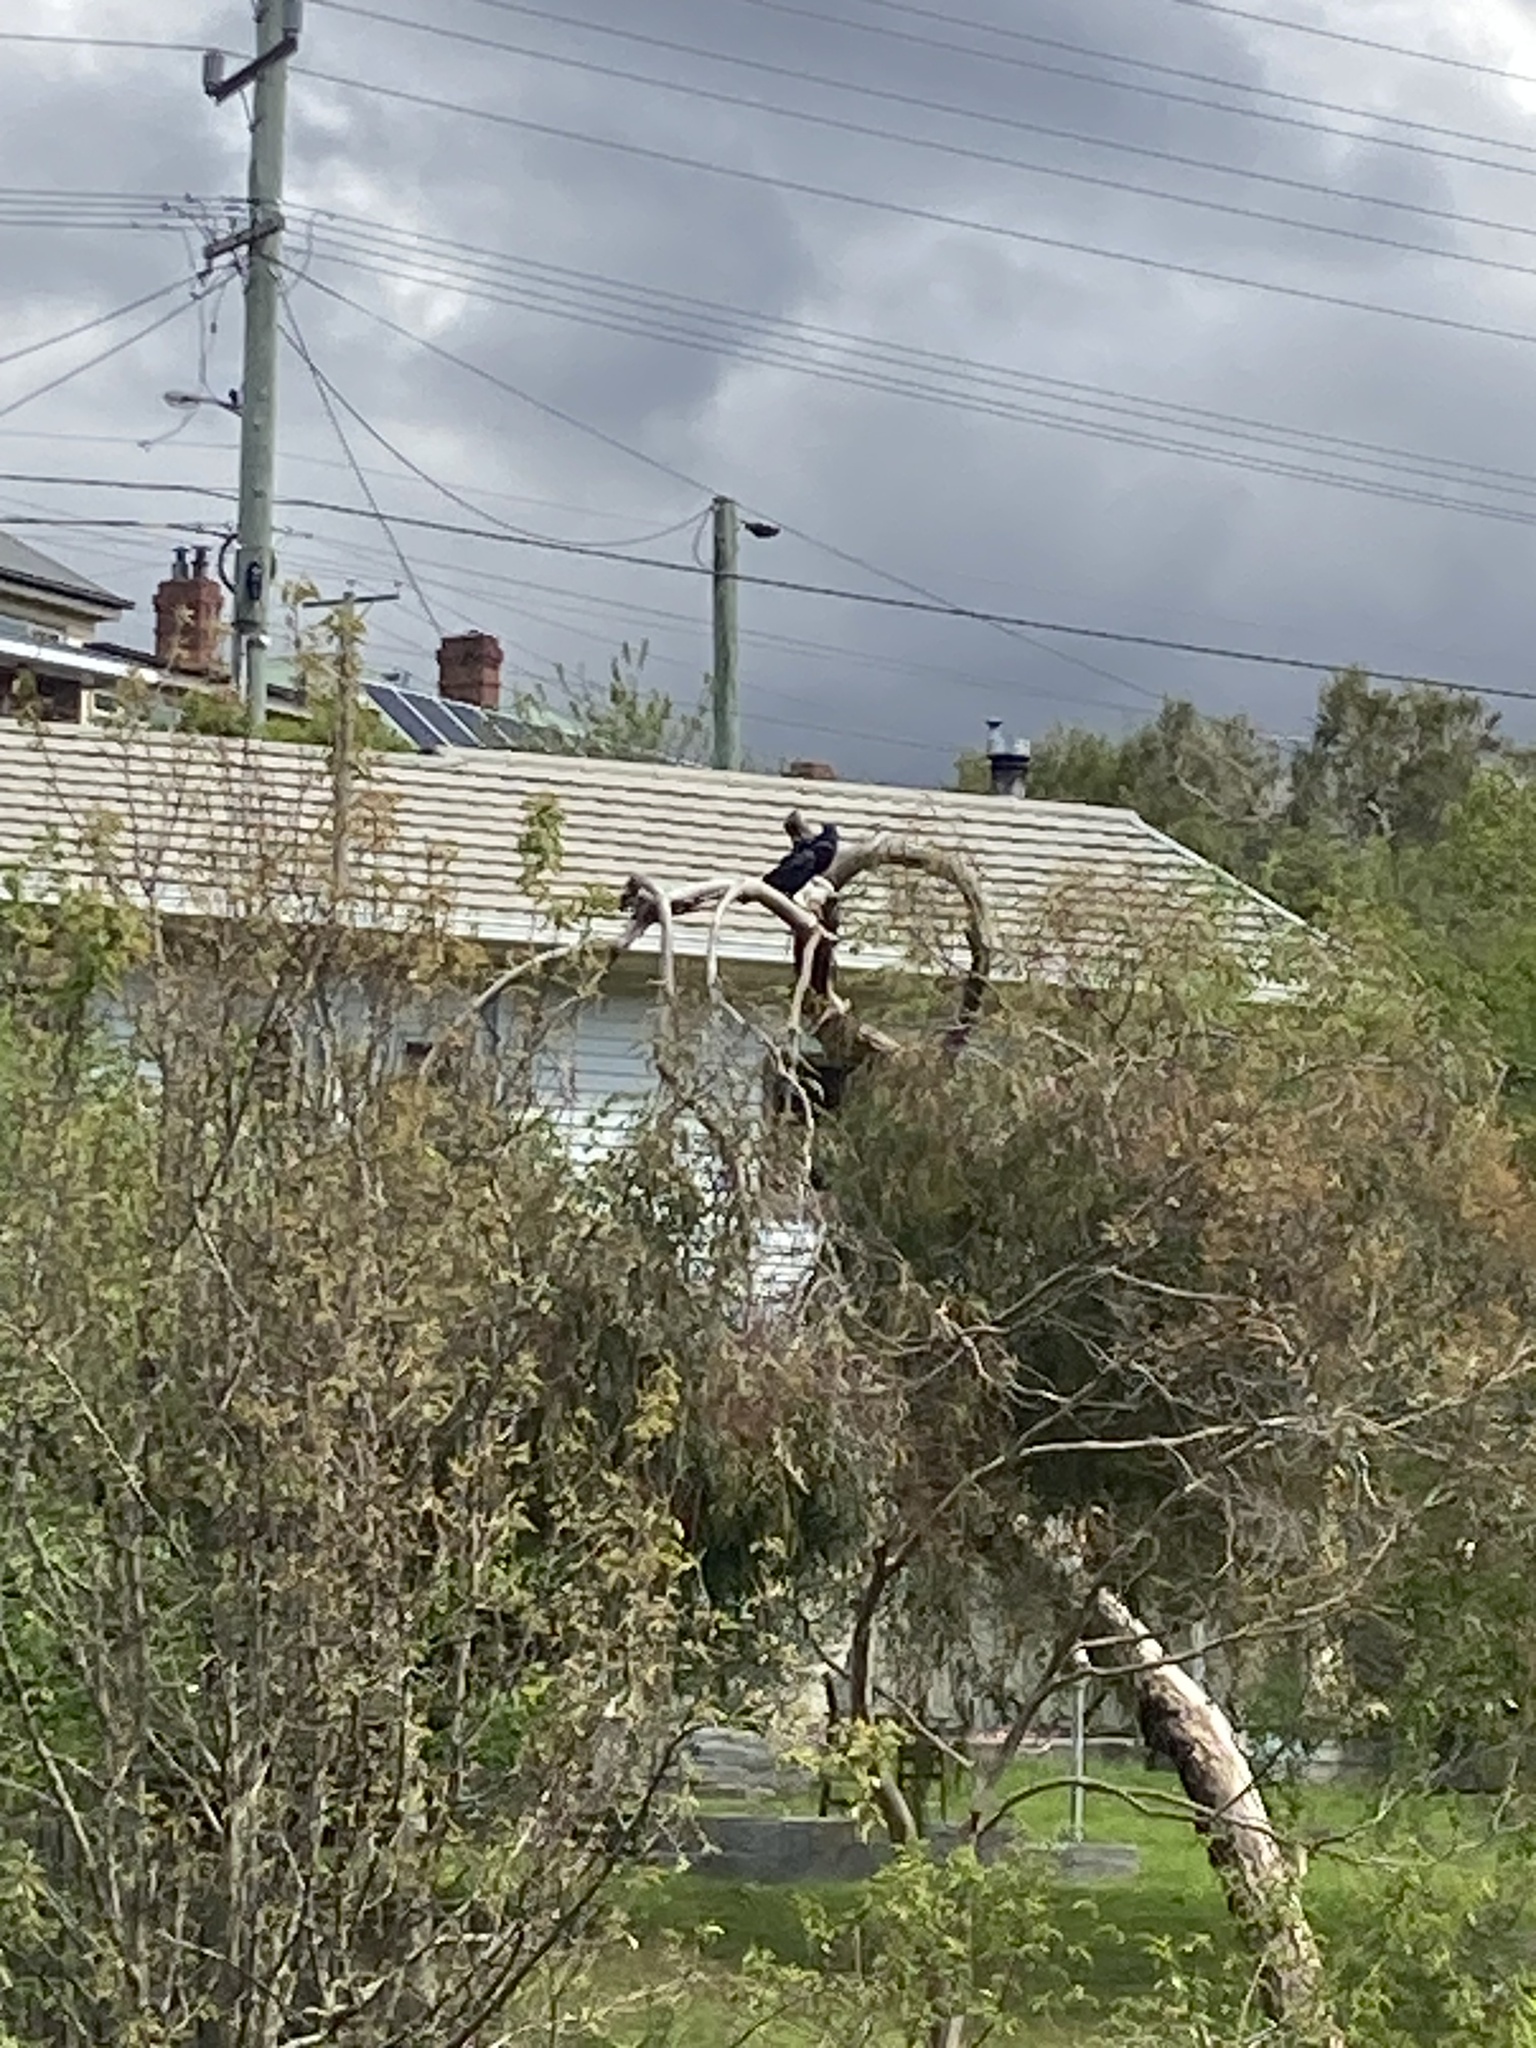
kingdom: Animalia
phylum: Chordata
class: Aves
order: Passeriformes
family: Corvidae
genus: Corvus
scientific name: Corvus tasmanicus
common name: Forest raven
